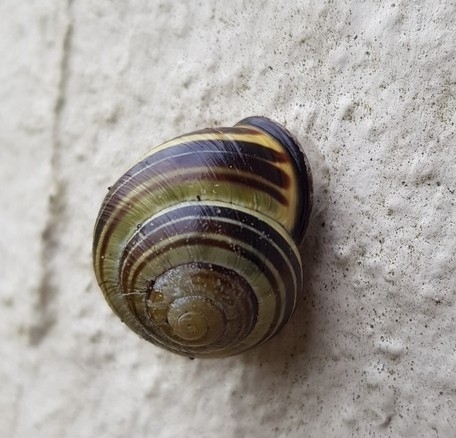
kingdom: Animalia
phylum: Mollusca
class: Gastropoda
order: Stylommatophora
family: Helicidae
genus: Cepaea
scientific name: Cepaea nemoralis
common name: Grovesnail
